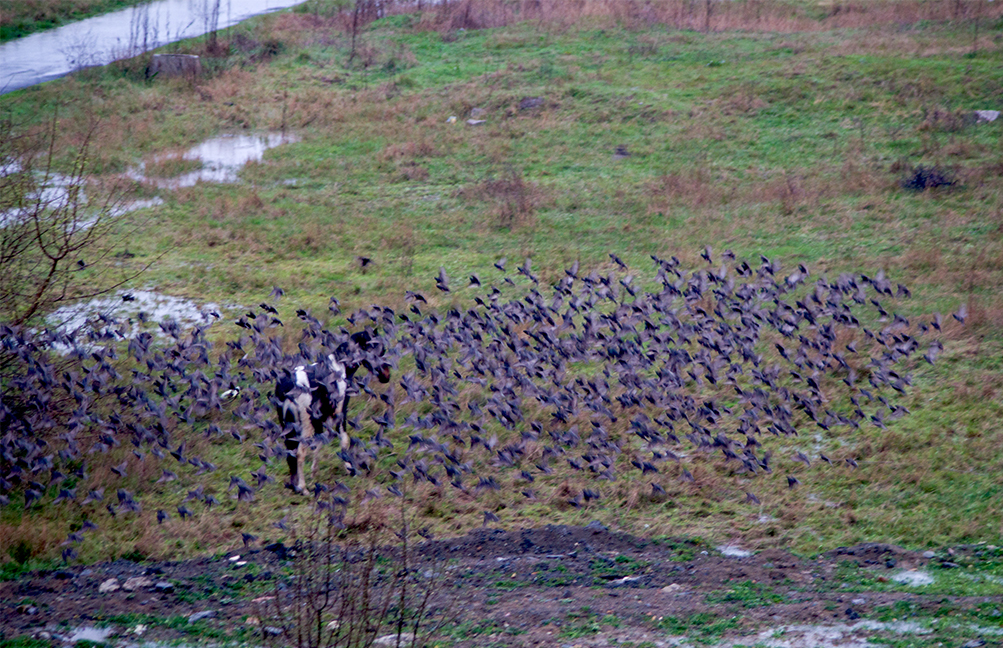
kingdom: Animalia
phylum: Chordata
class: Aves
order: Passeriformes
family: Sturnidae
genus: Sturnus
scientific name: Sturnus vulgaris
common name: Common starling
